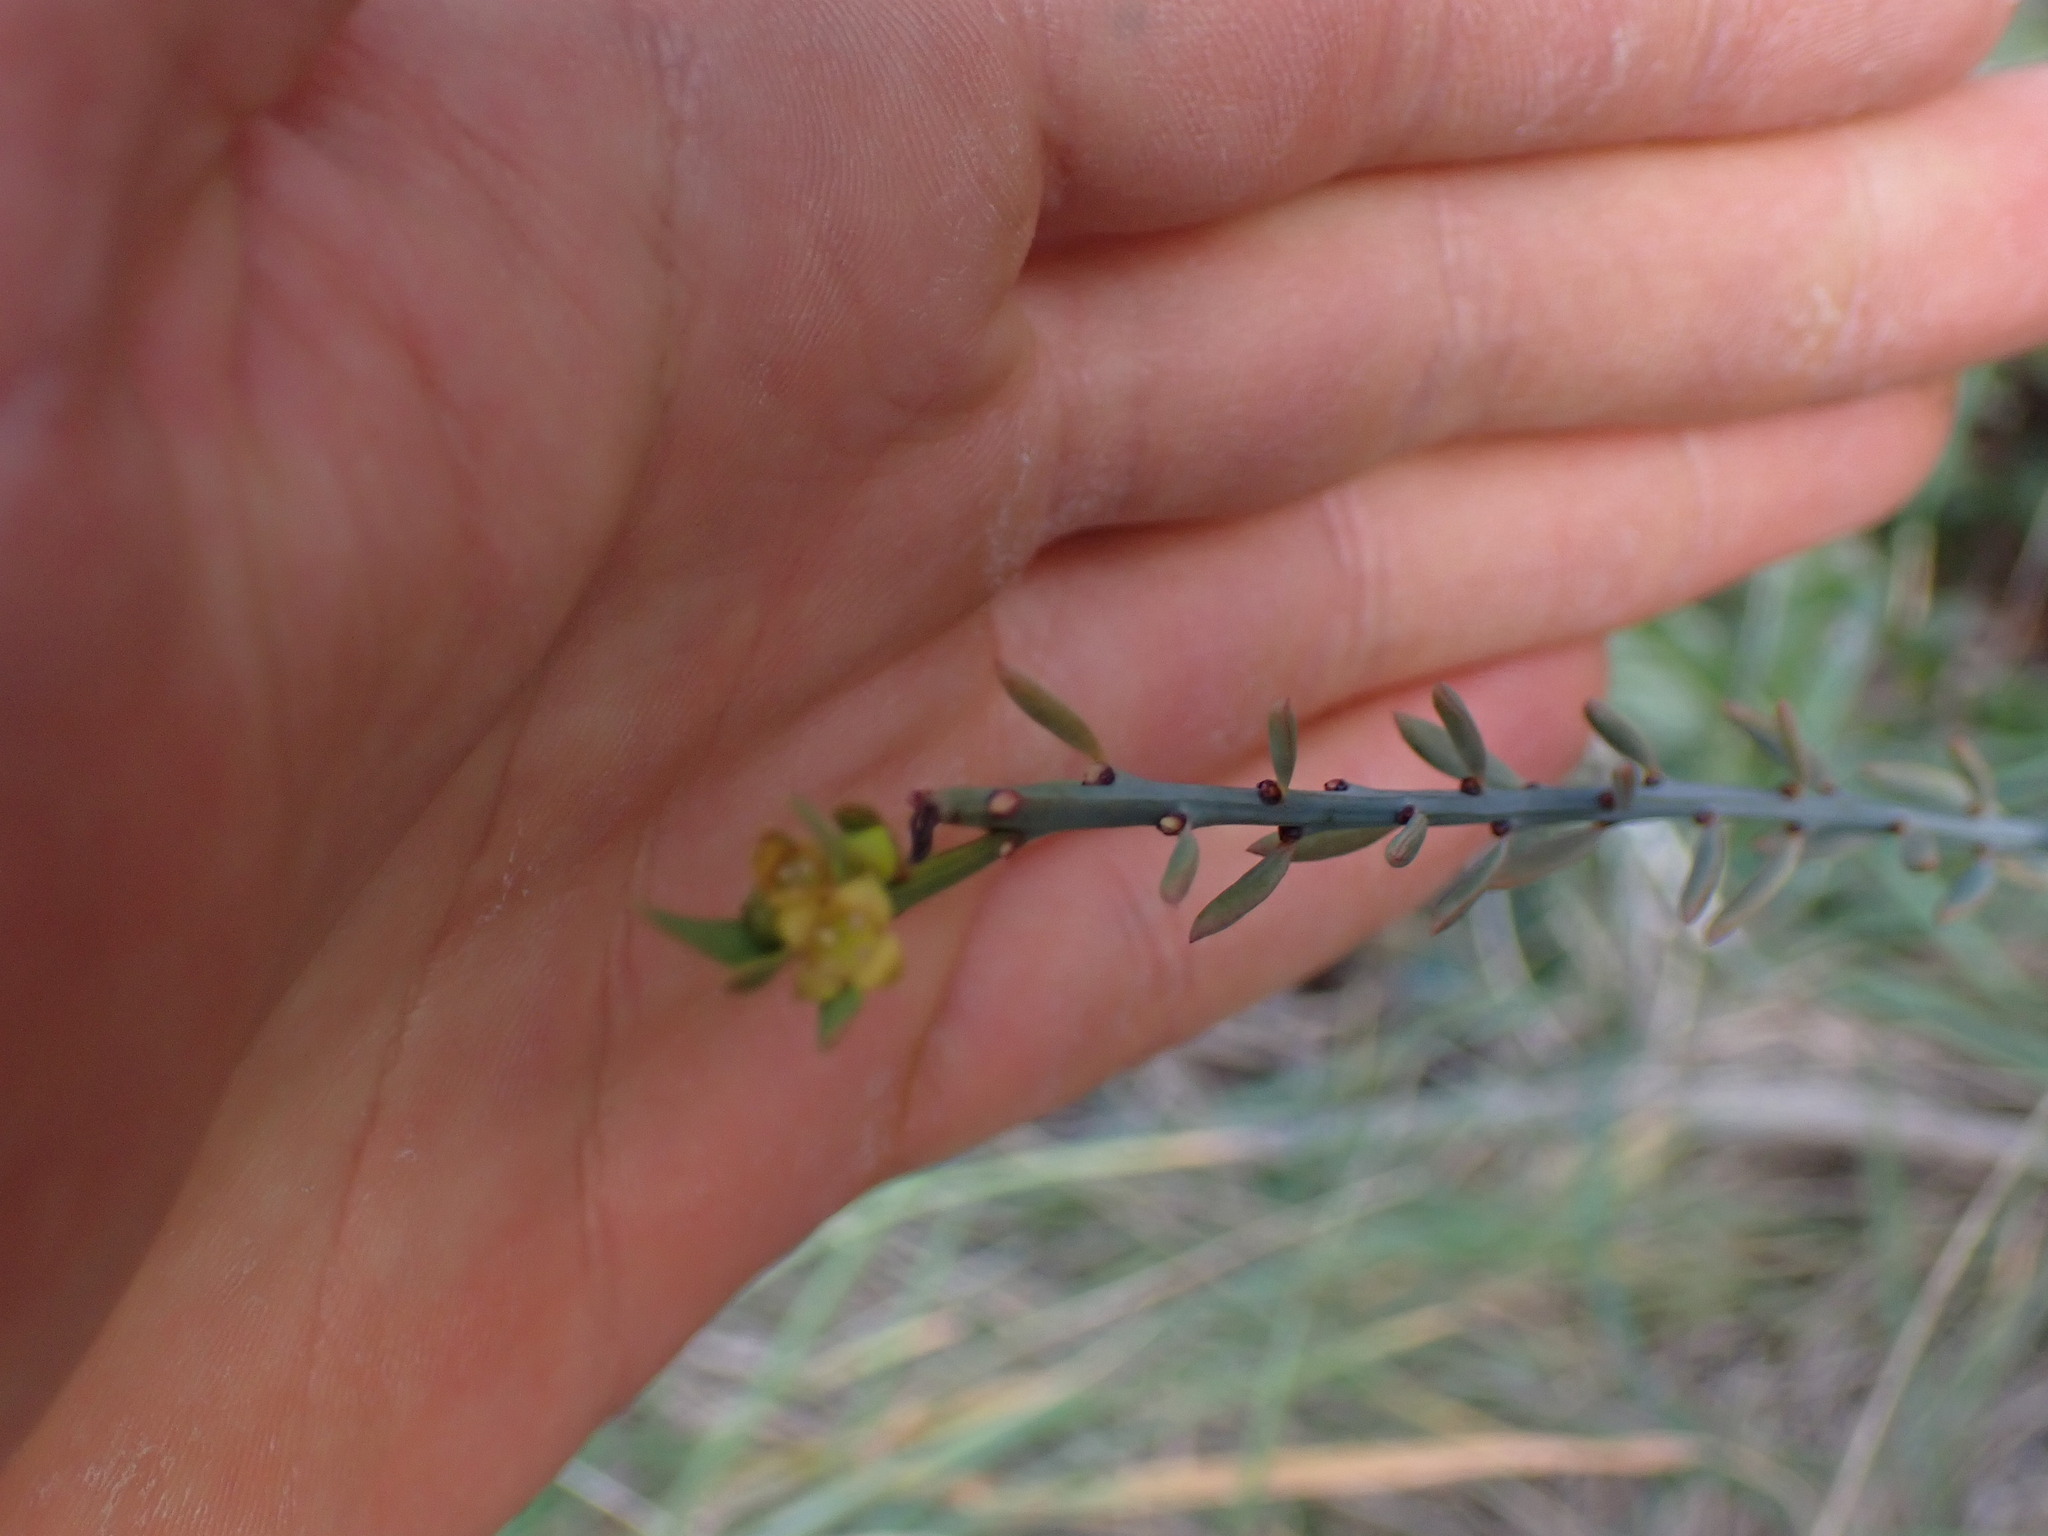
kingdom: Plantae
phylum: Tracheophyta
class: Magnoliopsida
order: Santalales
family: Santalaceae
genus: Osyris
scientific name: Osyris alba
